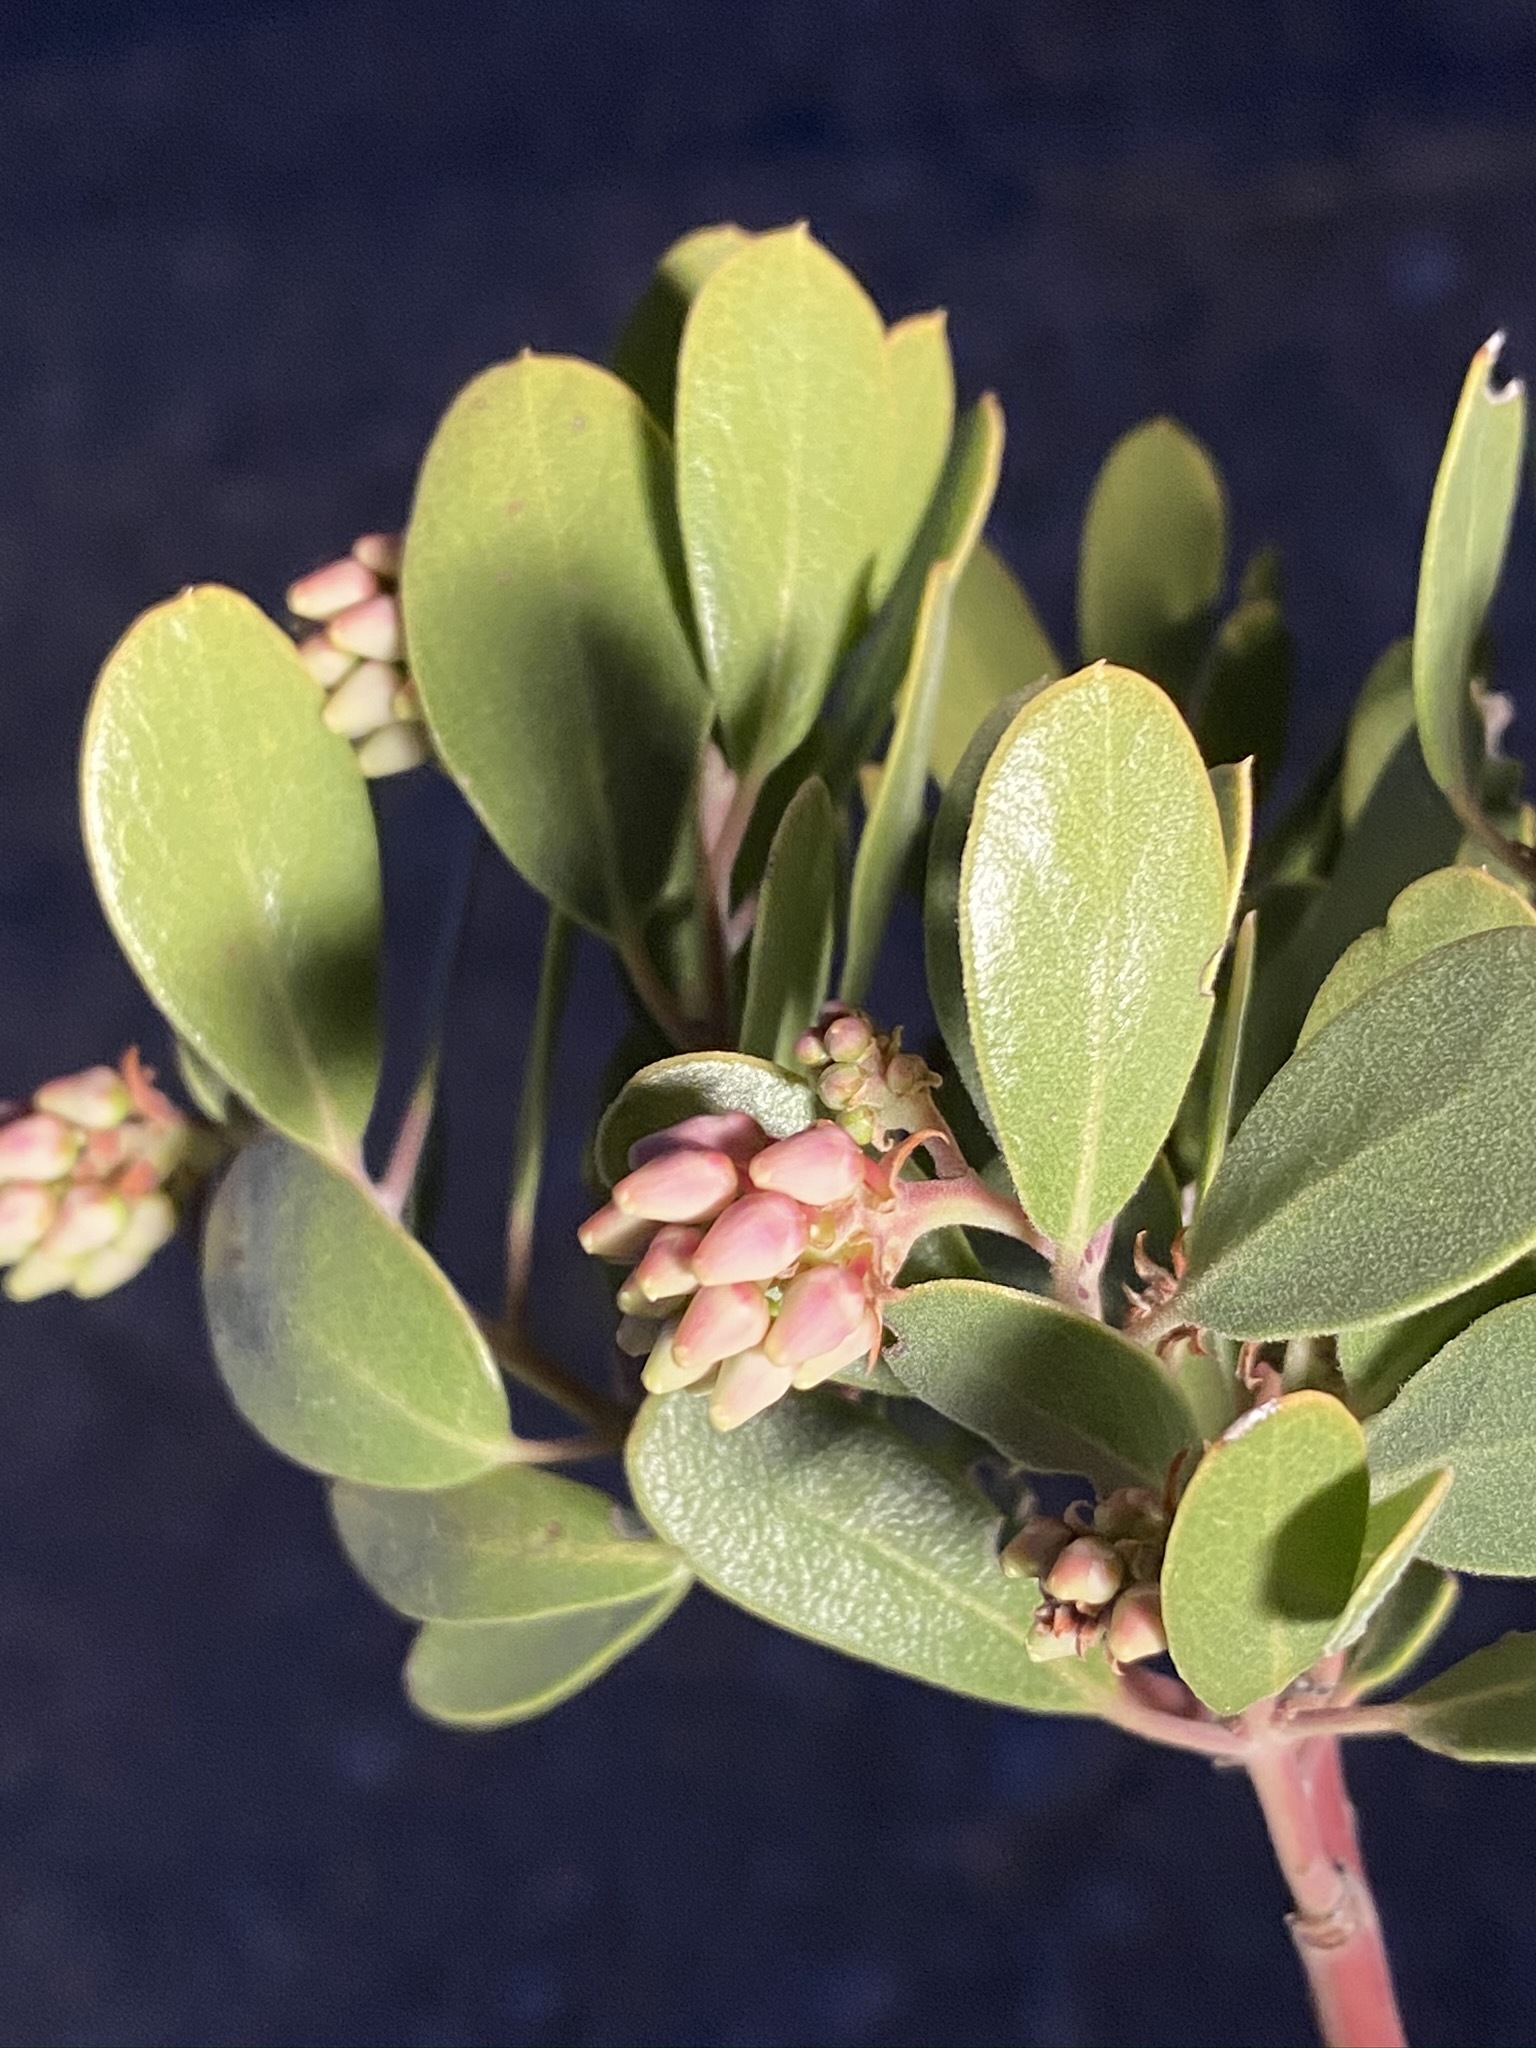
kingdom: Plantae
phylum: Tracheophyta
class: Magnoliopsida
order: Ericales
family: Ericaceae
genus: Arctostaphylos
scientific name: Arctostaphylos pungens
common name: Mexican manzanita
